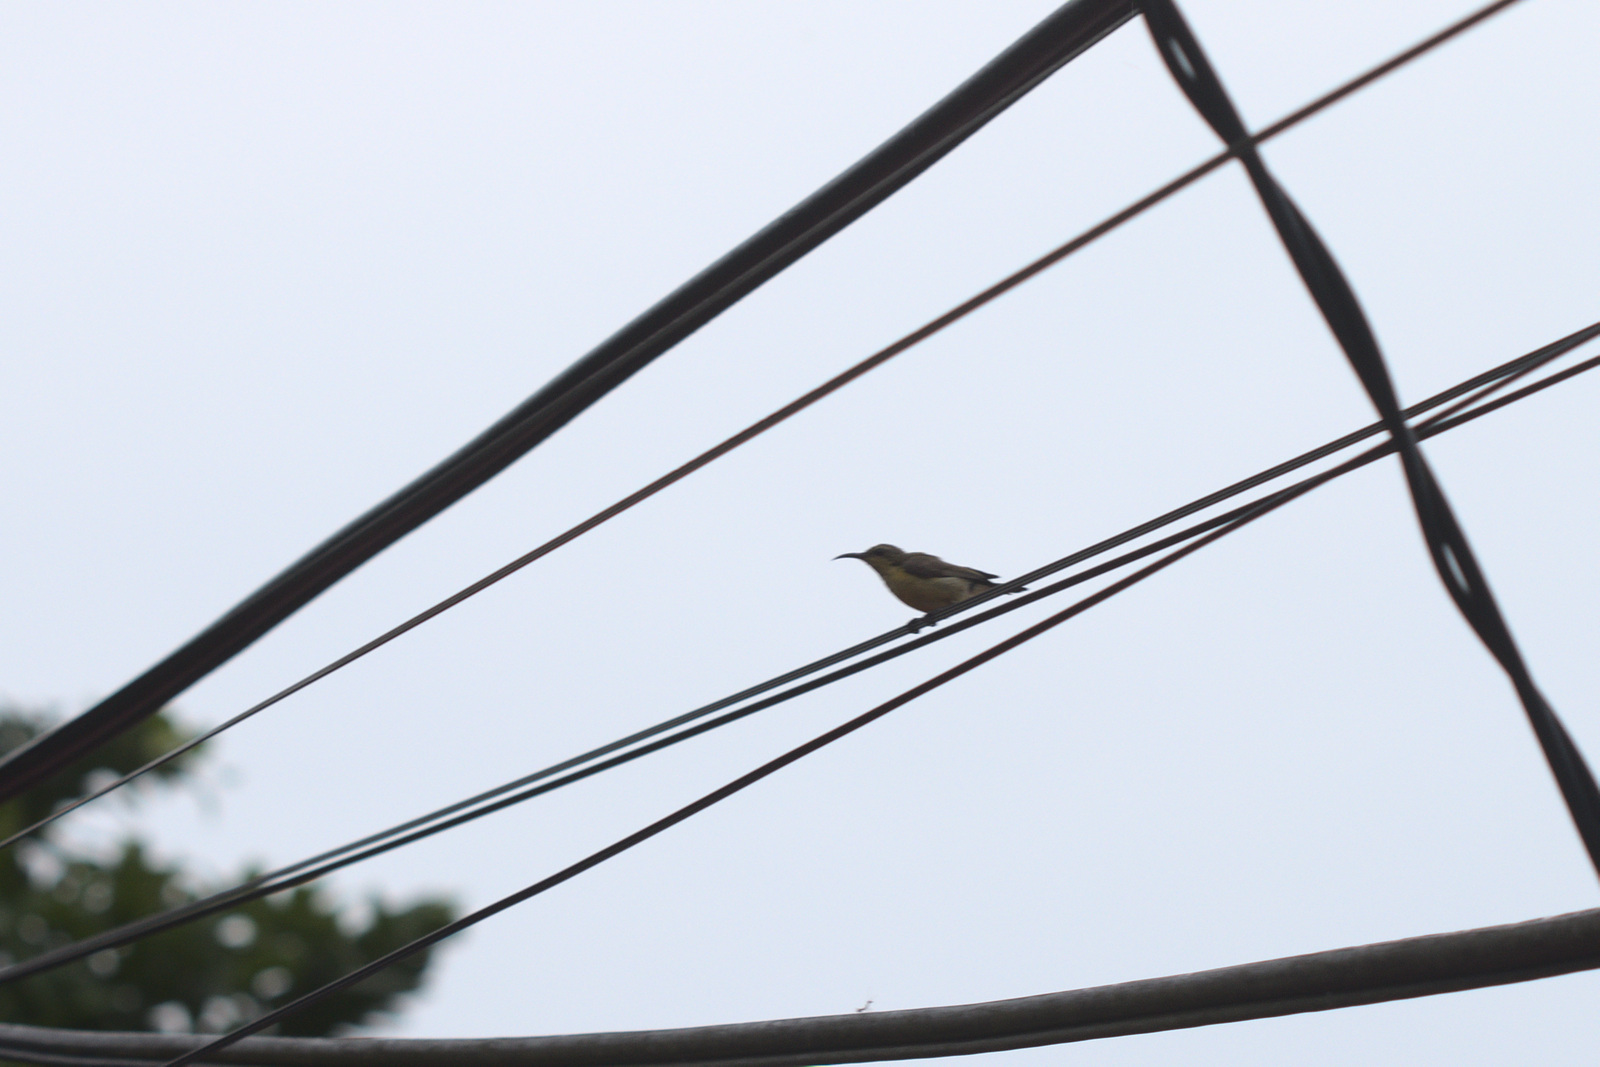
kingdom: Animalia
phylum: Chordata
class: Aves
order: Passeriformes
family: Nectariniidae
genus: Cinnyris
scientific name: Cinnyris
